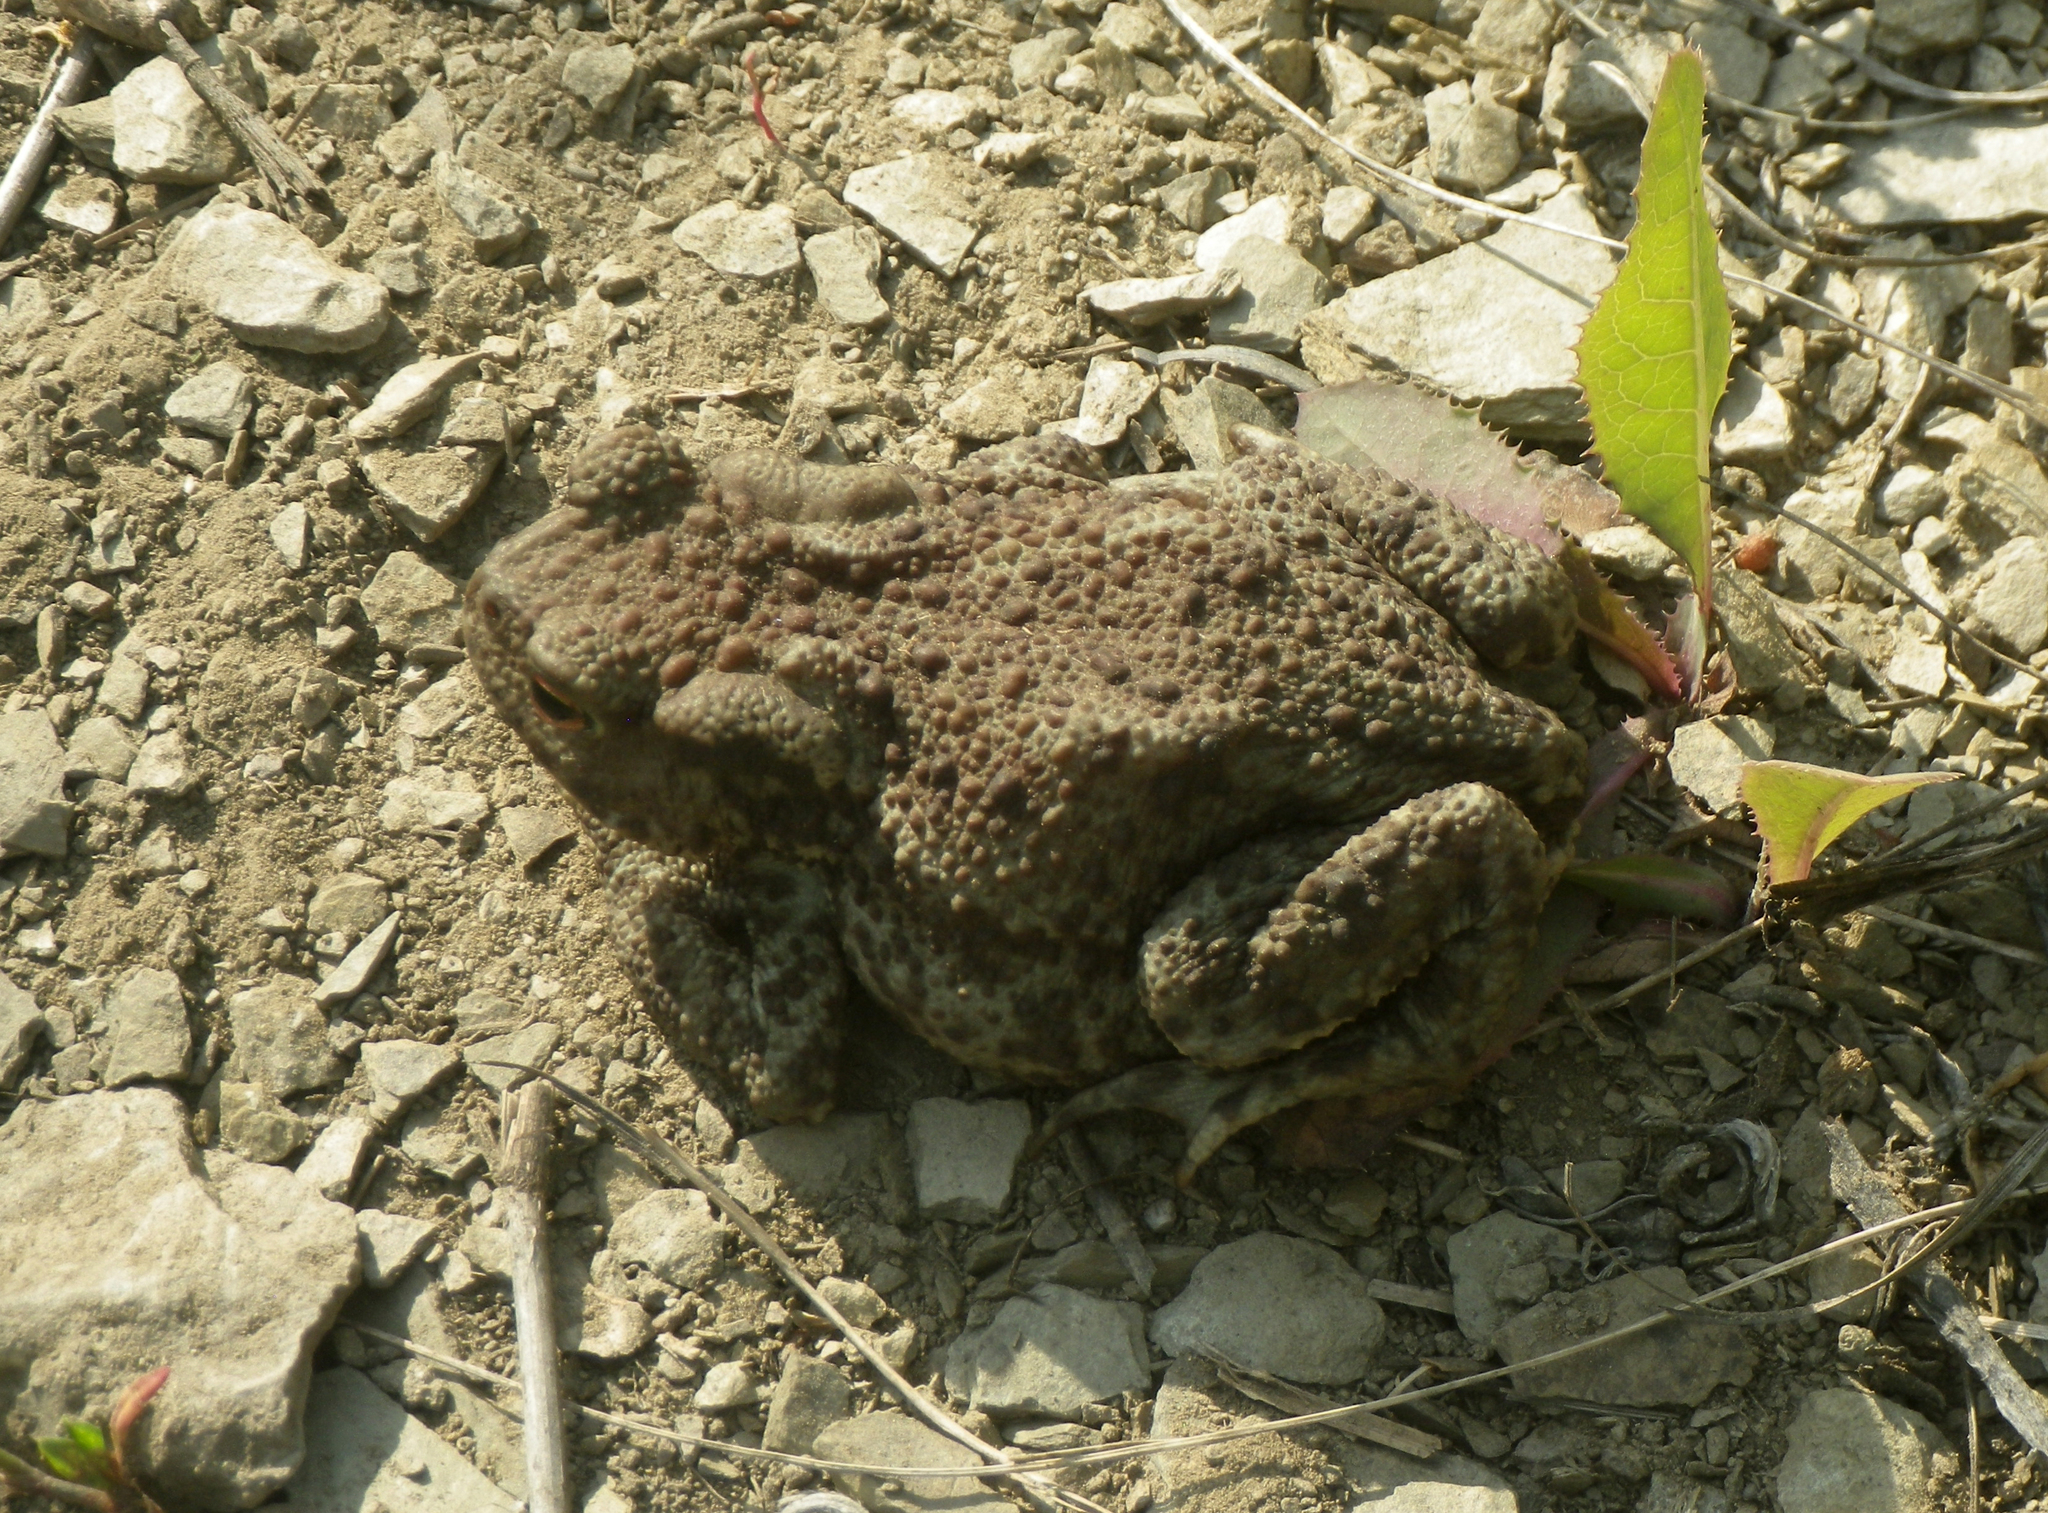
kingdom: Animalia
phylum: Chordata
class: Amphibia
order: Anura
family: Bufonidae
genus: Bufo
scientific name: Bufo bufo
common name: Common toad
